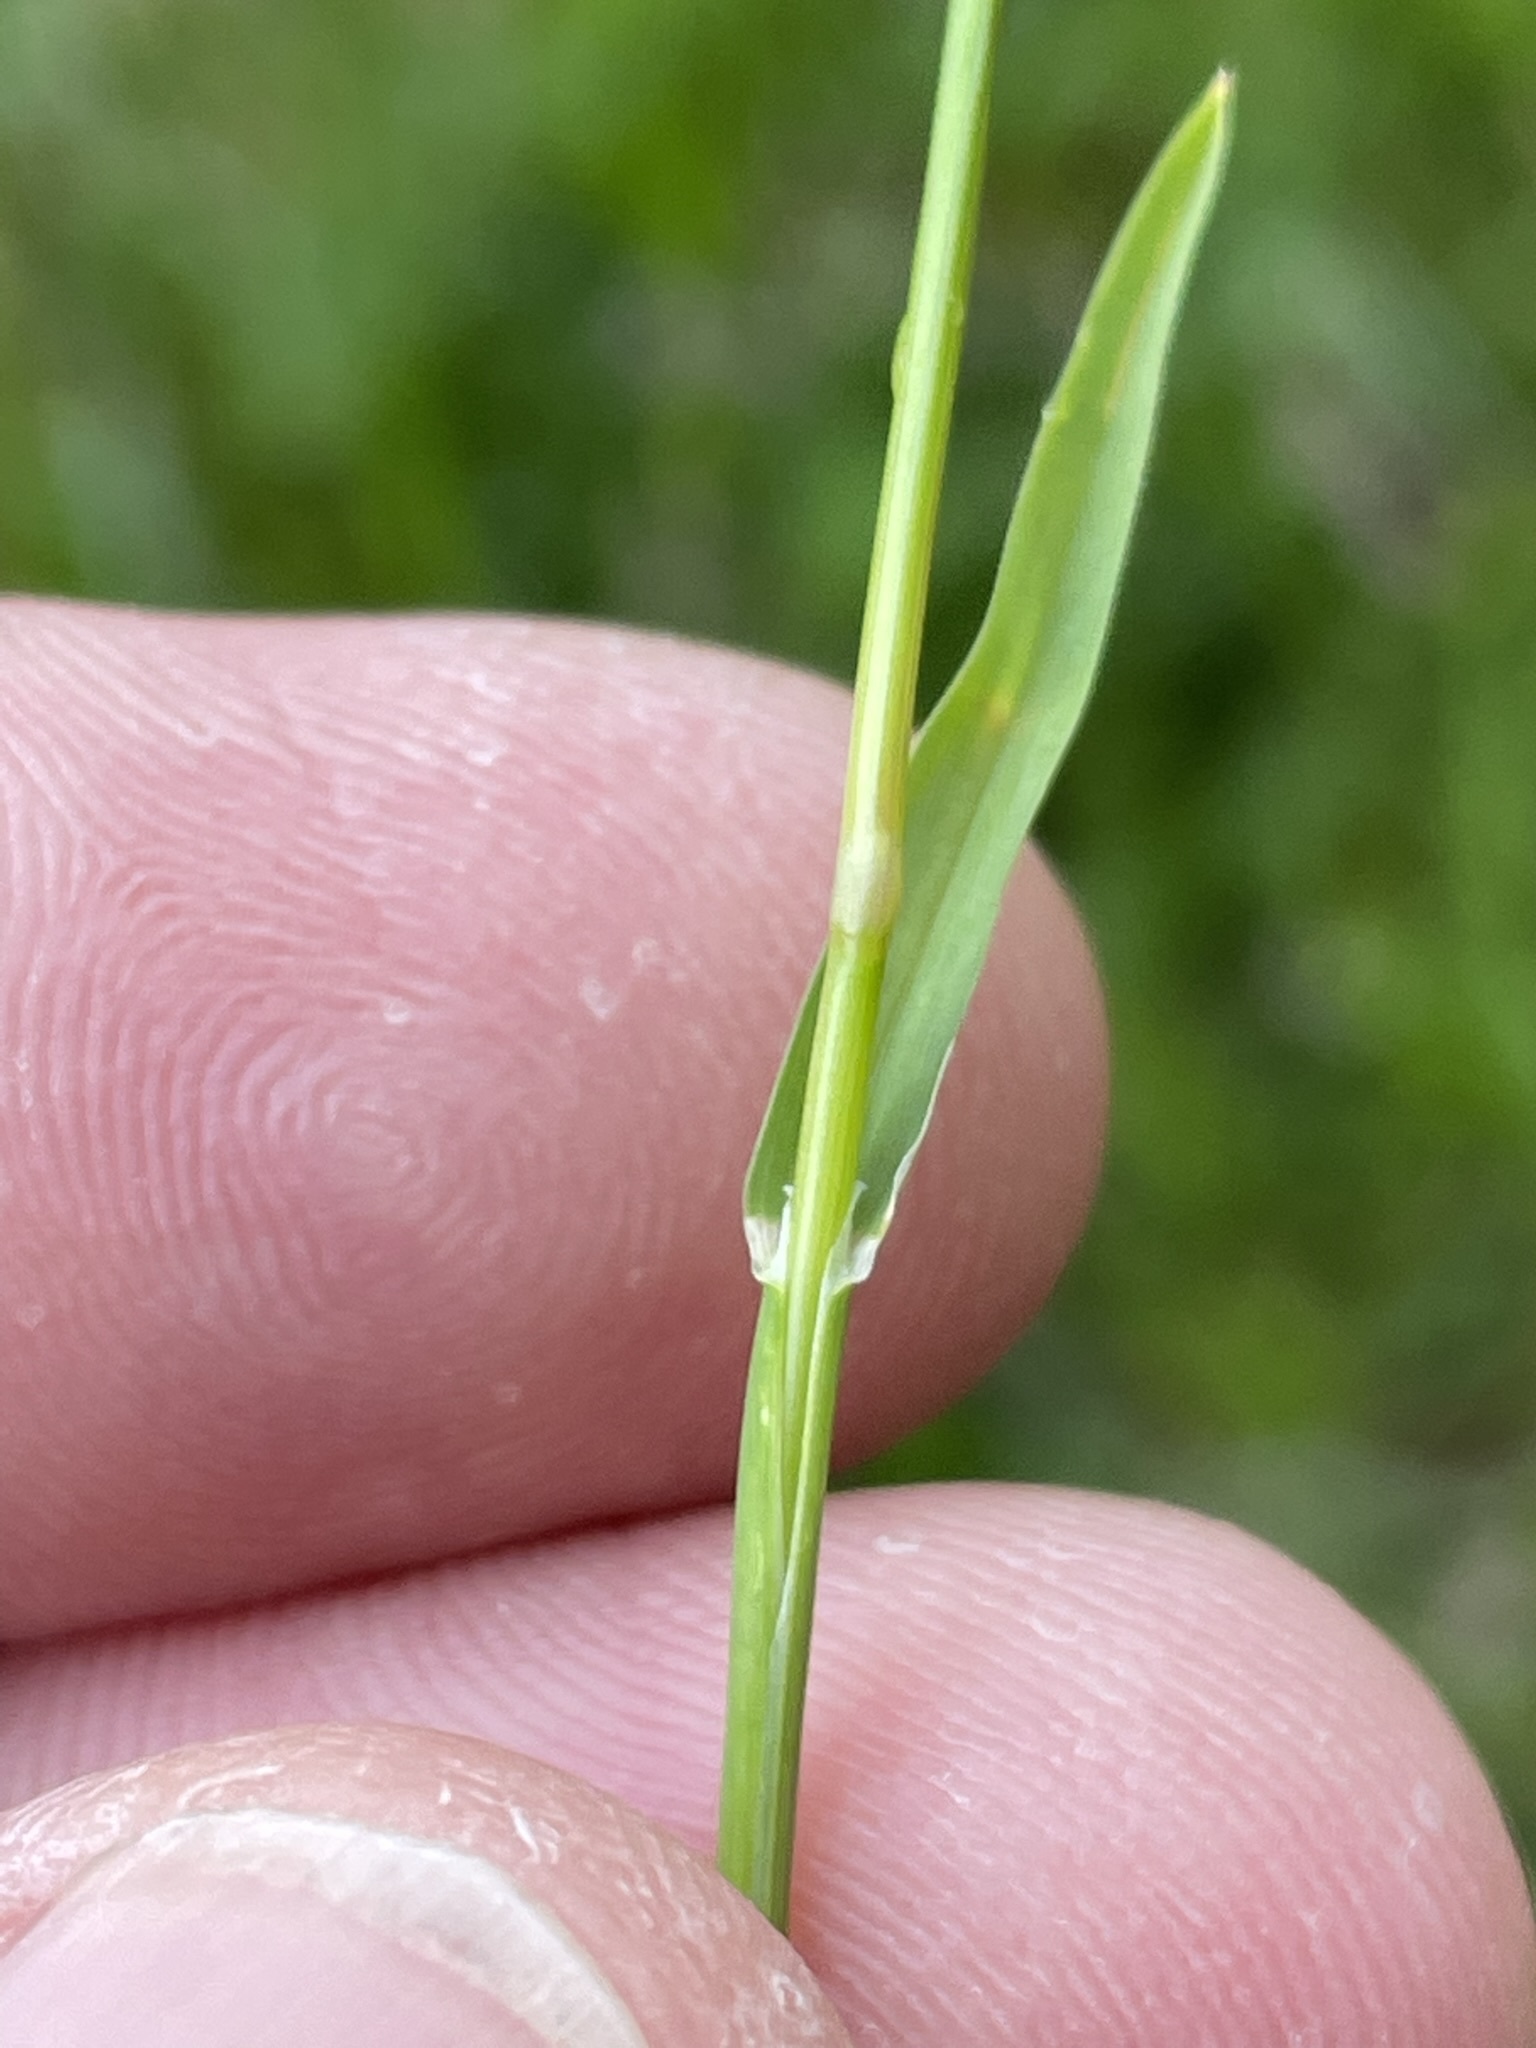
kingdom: Plantae
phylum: Tracheophyta
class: Liliopsida
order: Poales
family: Poaceae
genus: Poa
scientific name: Poa annua
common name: Annual bluegrass
